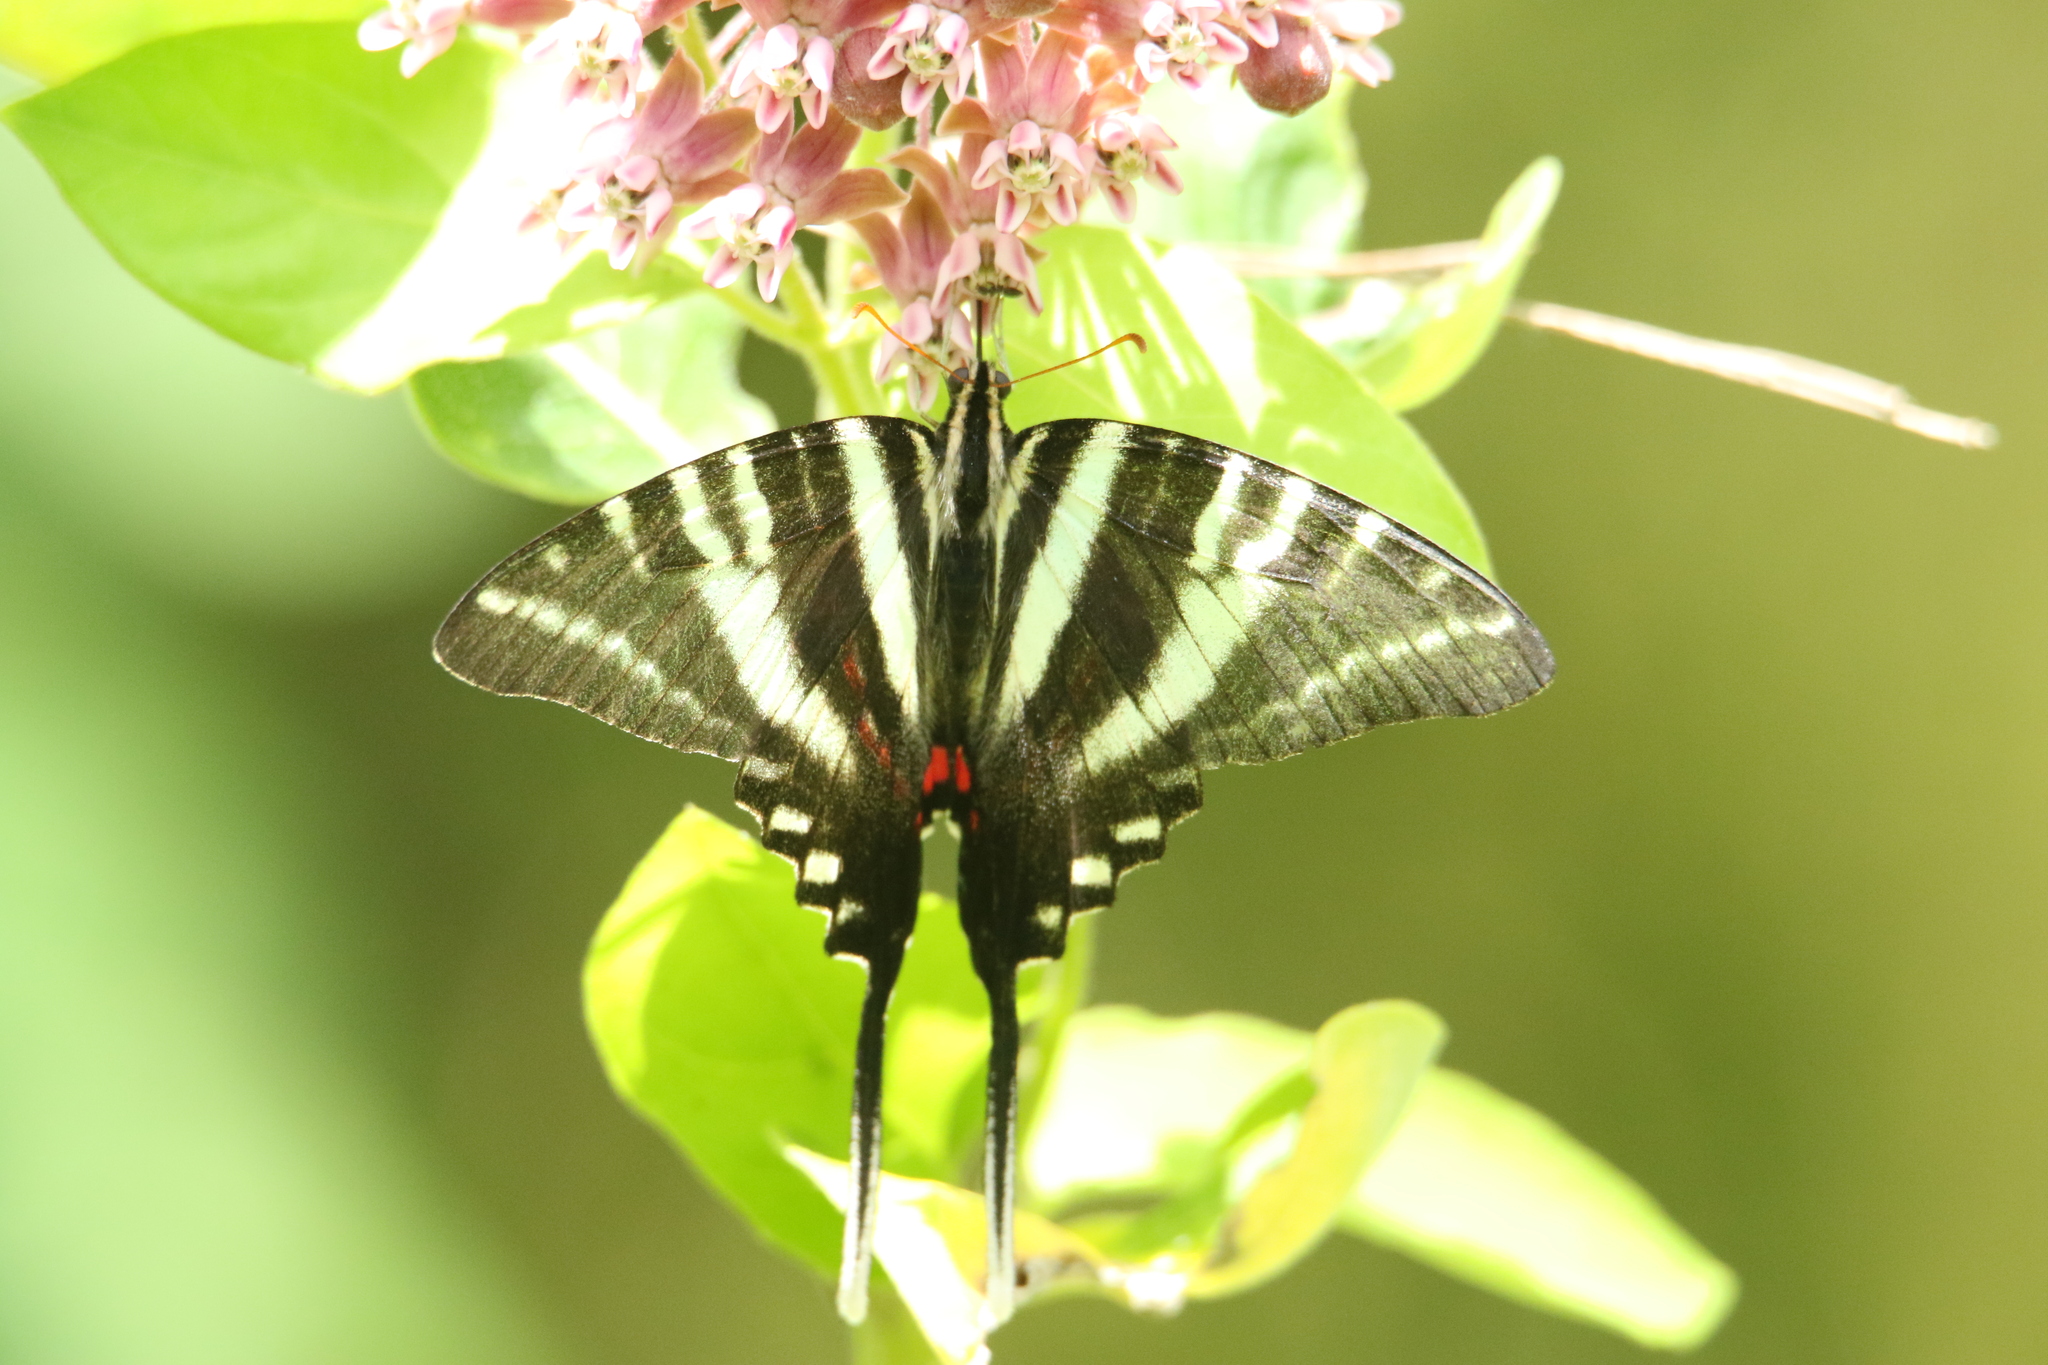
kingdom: Animalia
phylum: Arthropoda
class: Insecta
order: Lepidoptera
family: Papilionidae
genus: Protographium
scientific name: Protographium marcellus
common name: Zebra swallowtail
